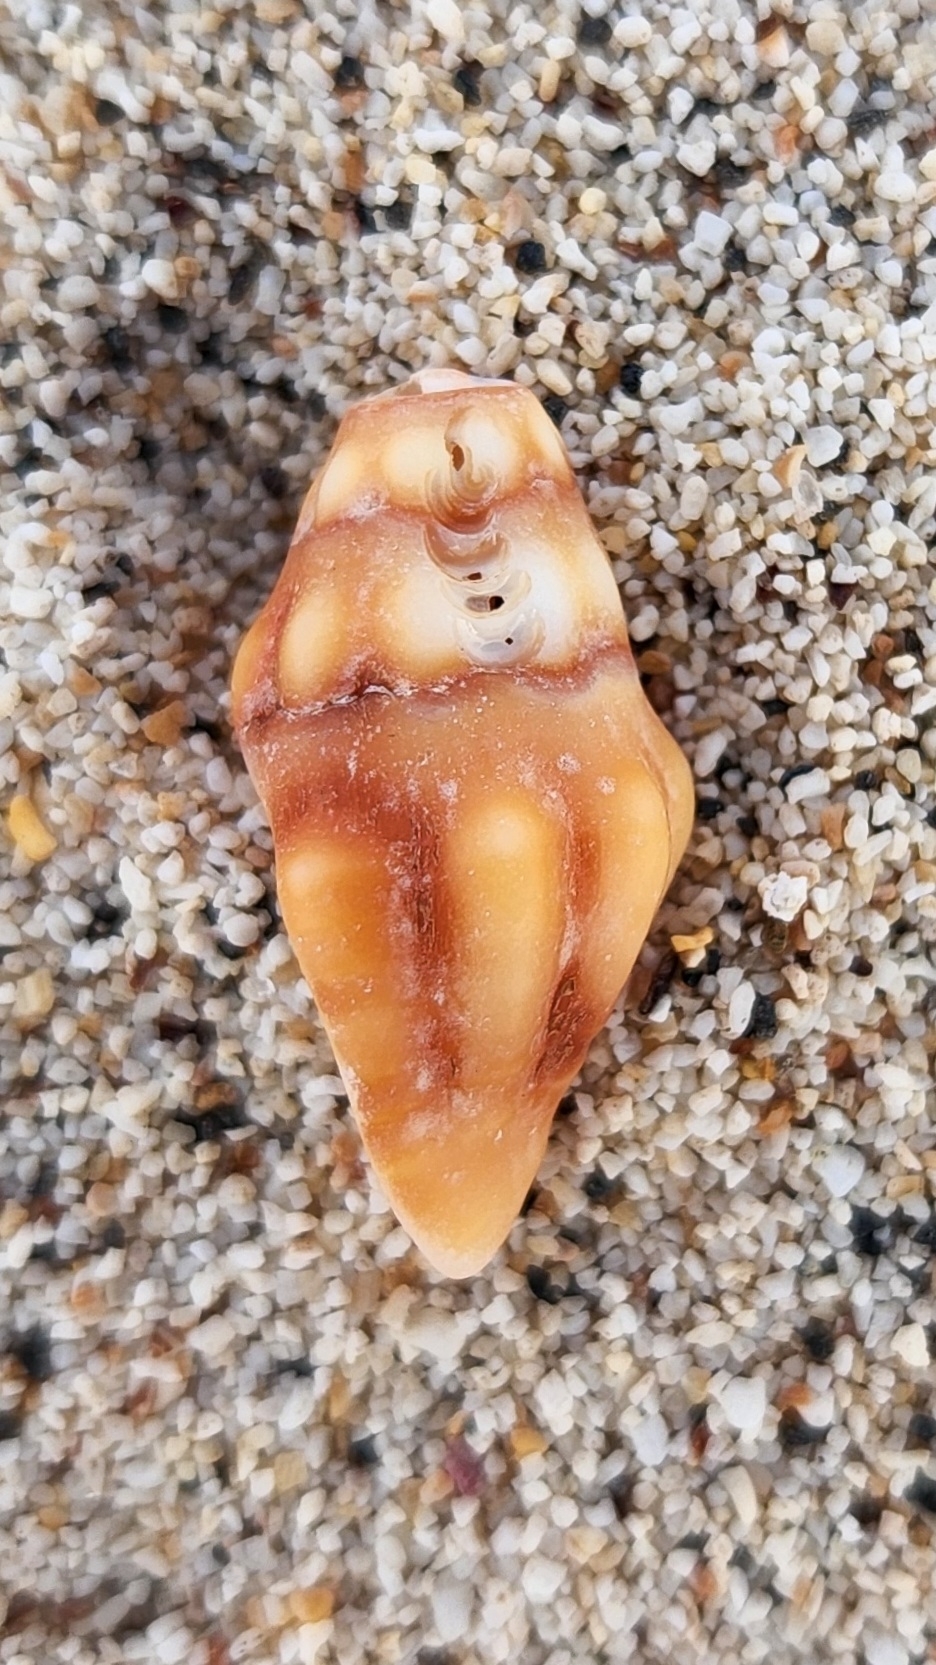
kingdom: Animalia
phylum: Mollusca
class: Gastropoda
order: Neogastropoda
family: Fasciolariidae
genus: Polygona
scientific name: Polygona socorroensis
